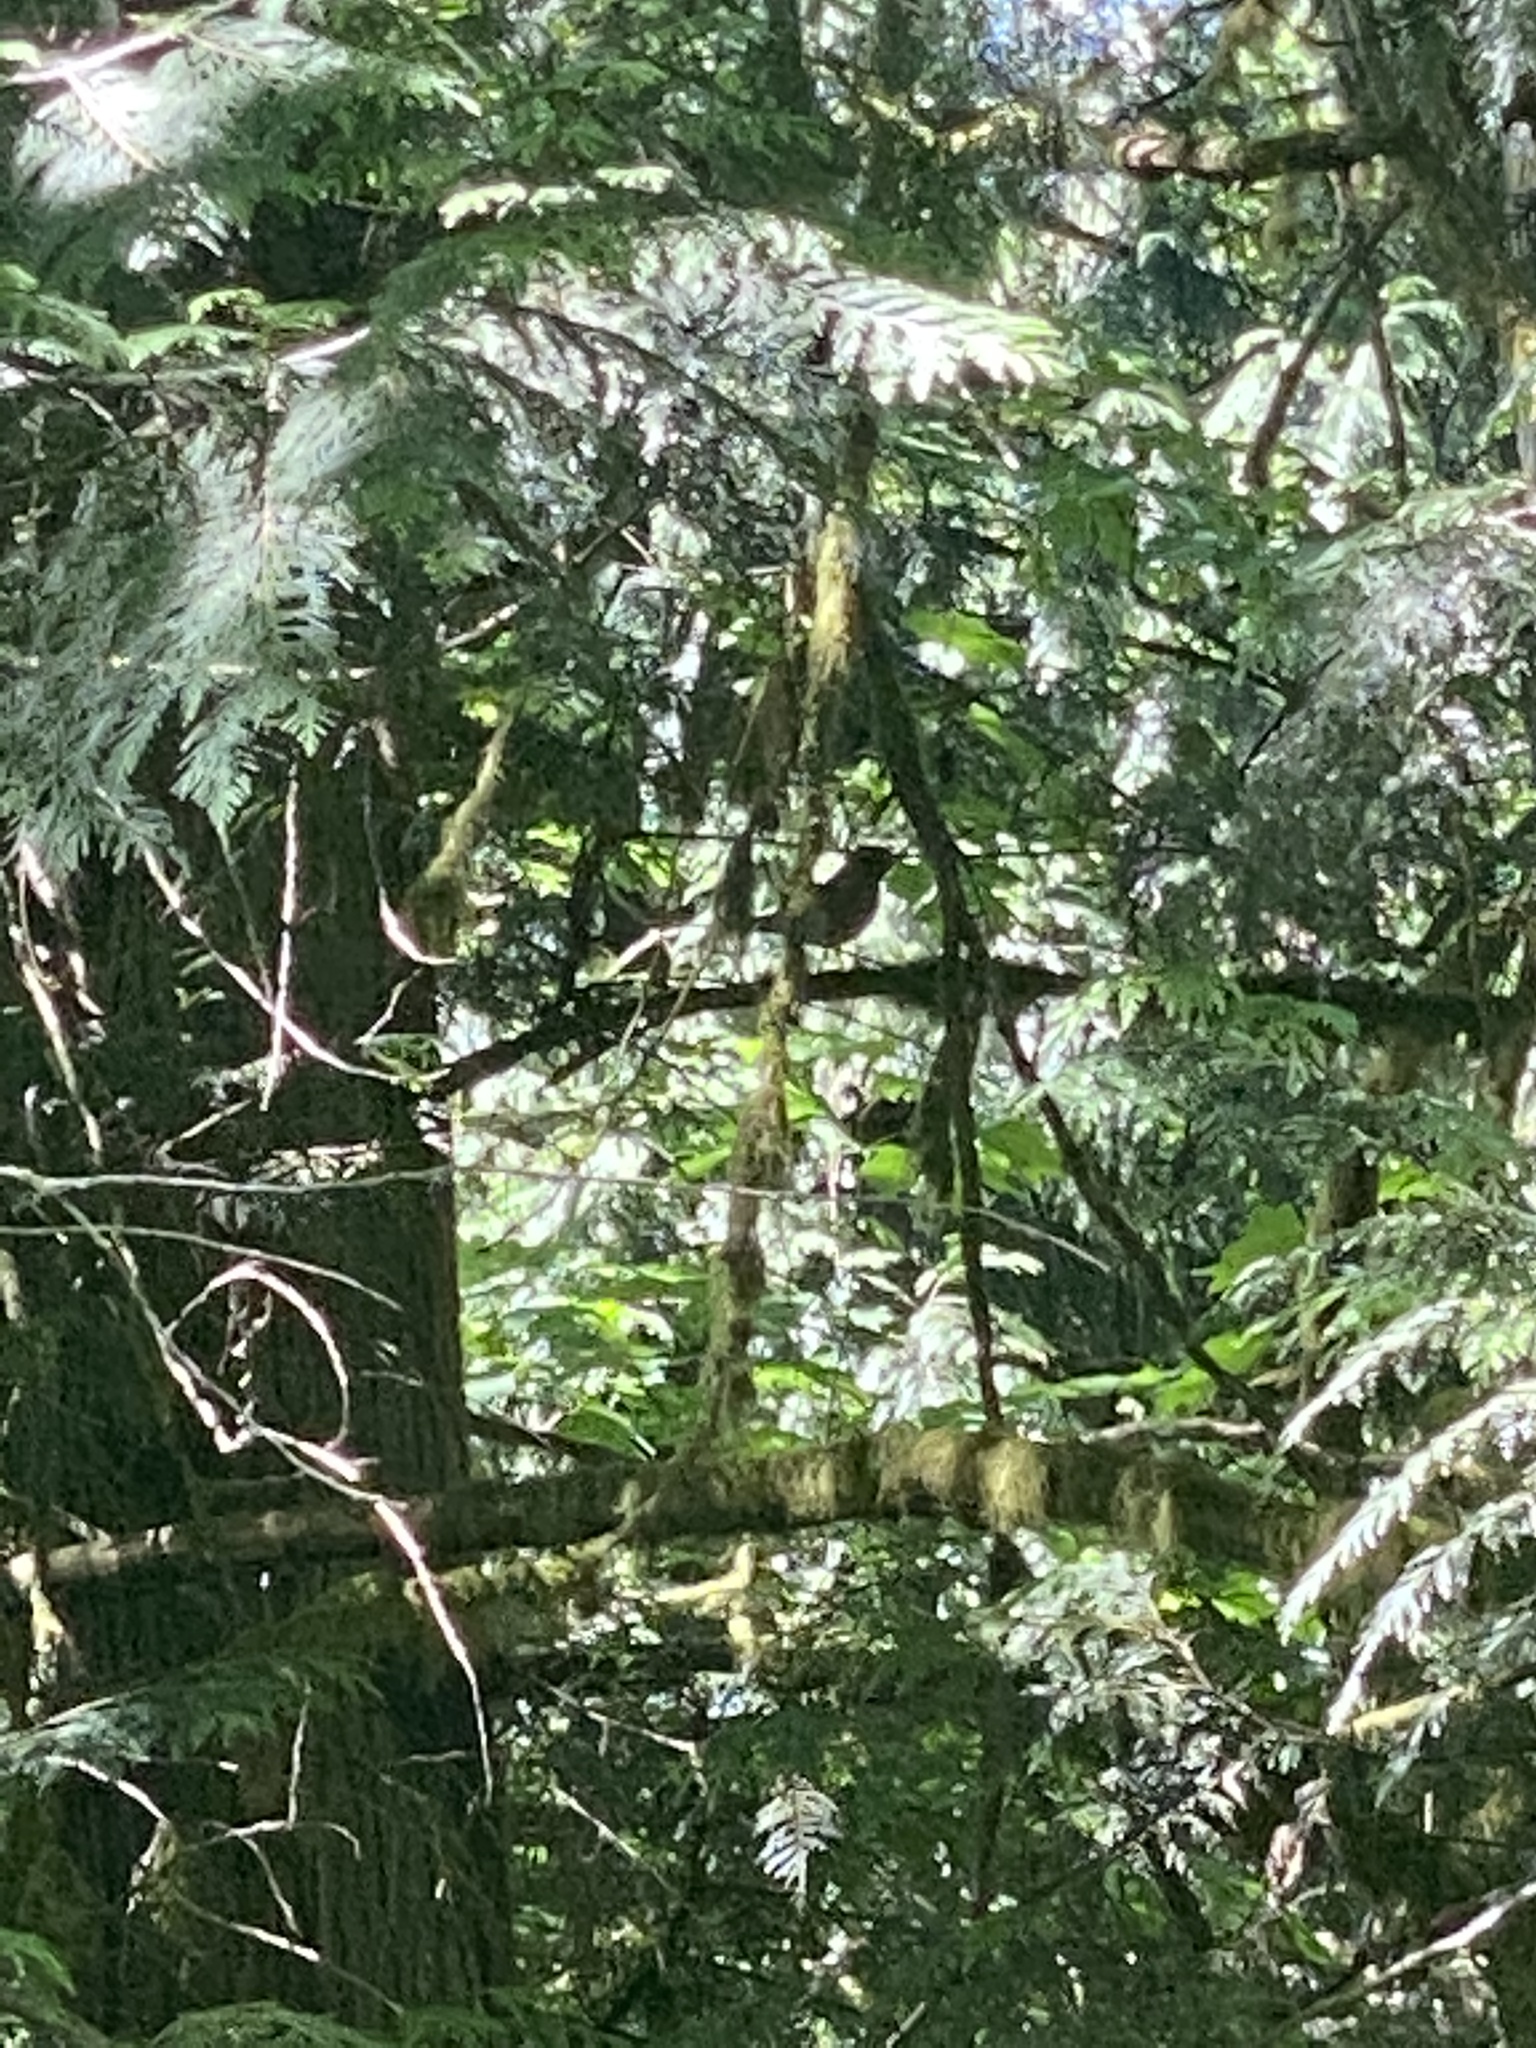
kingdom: Animalia
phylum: Chordata
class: Aves
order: Passeriformes
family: Turdidae
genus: Turdus
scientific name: Turdus migratorius
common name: American robin
